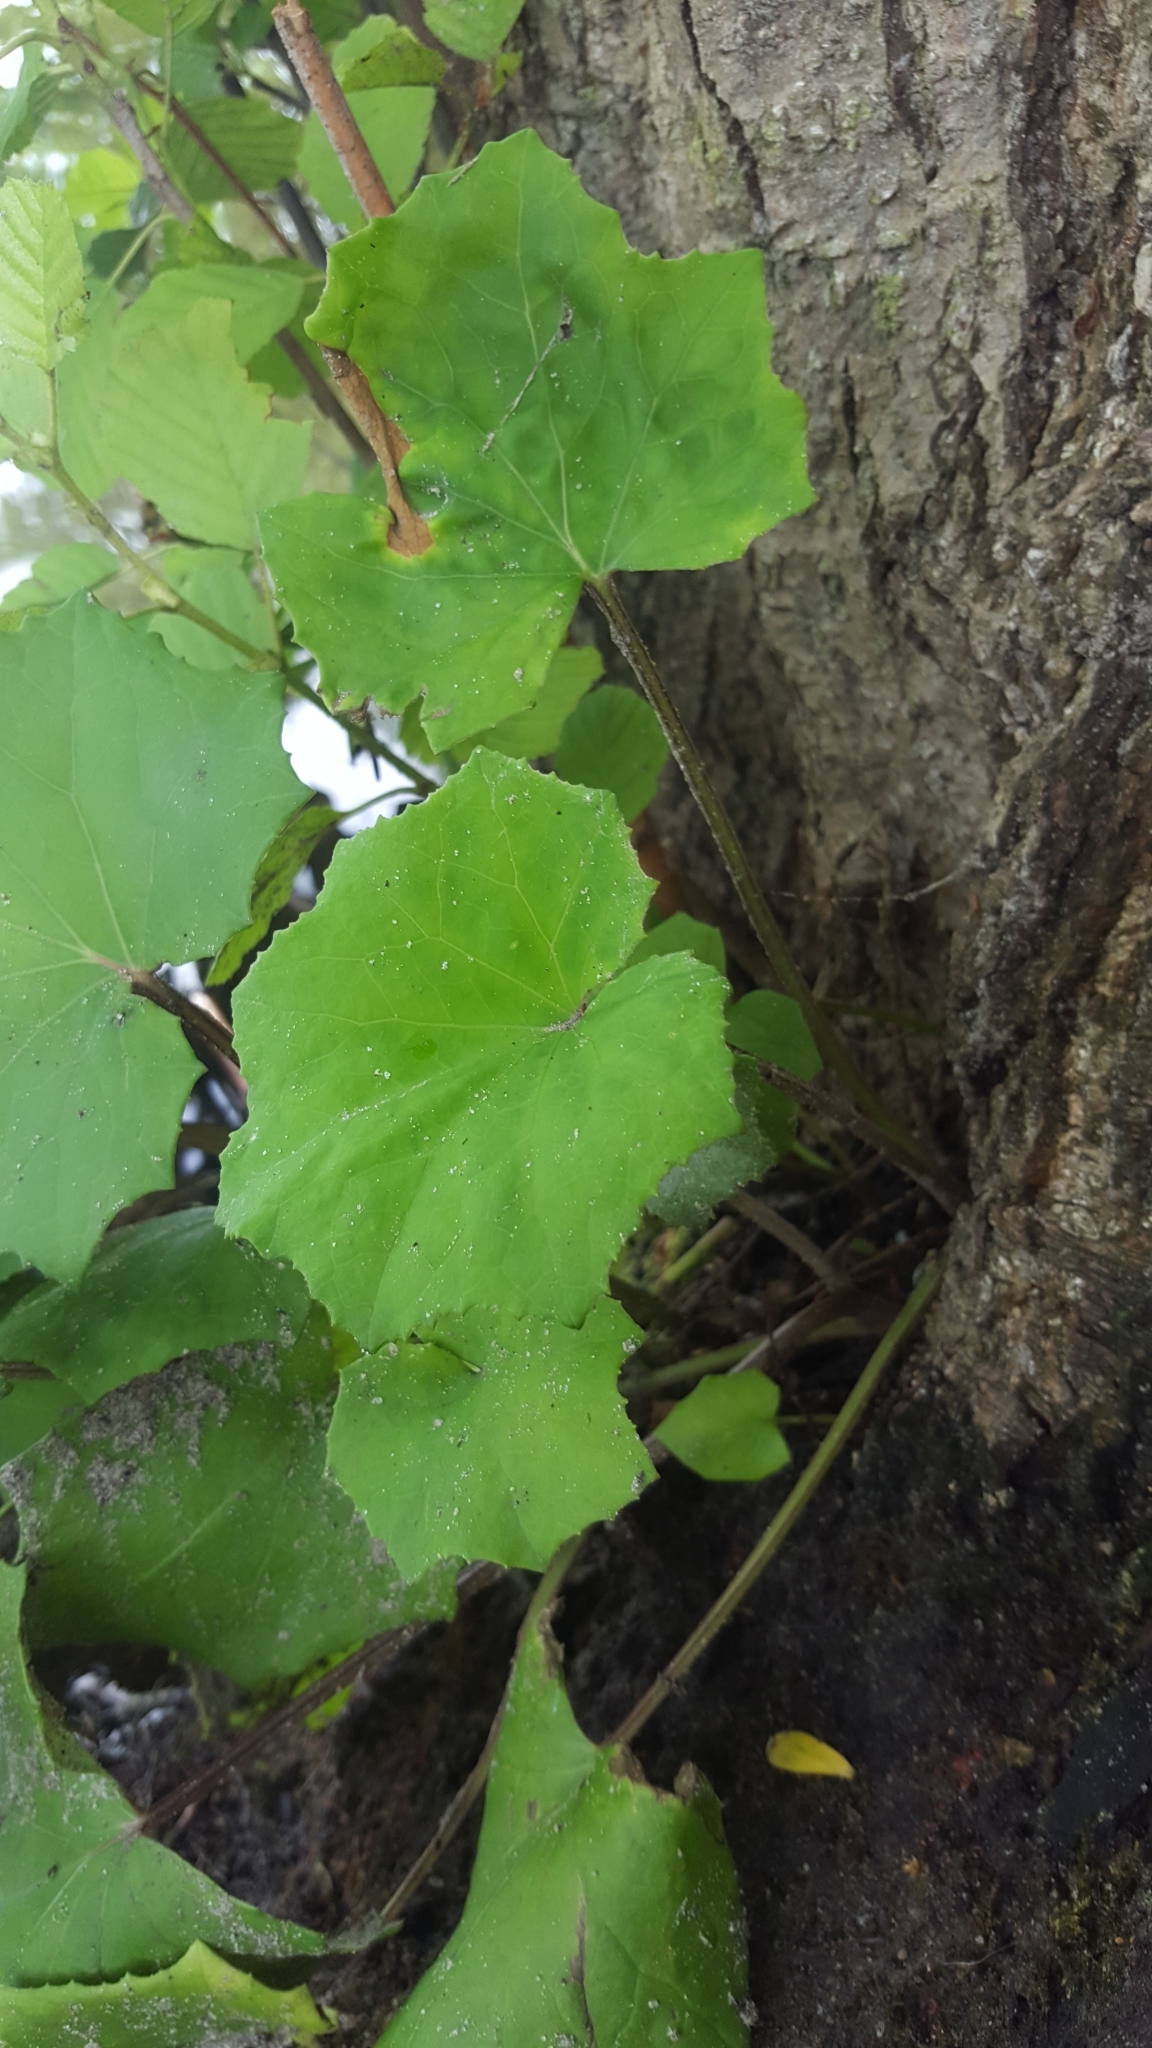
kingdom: Plantae
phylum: Tracheophyta
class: Magnoliopsida
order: Asterales
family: Asteraceae
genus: Tussilago
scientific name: Tussilago farfara
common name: Coltsfoot
